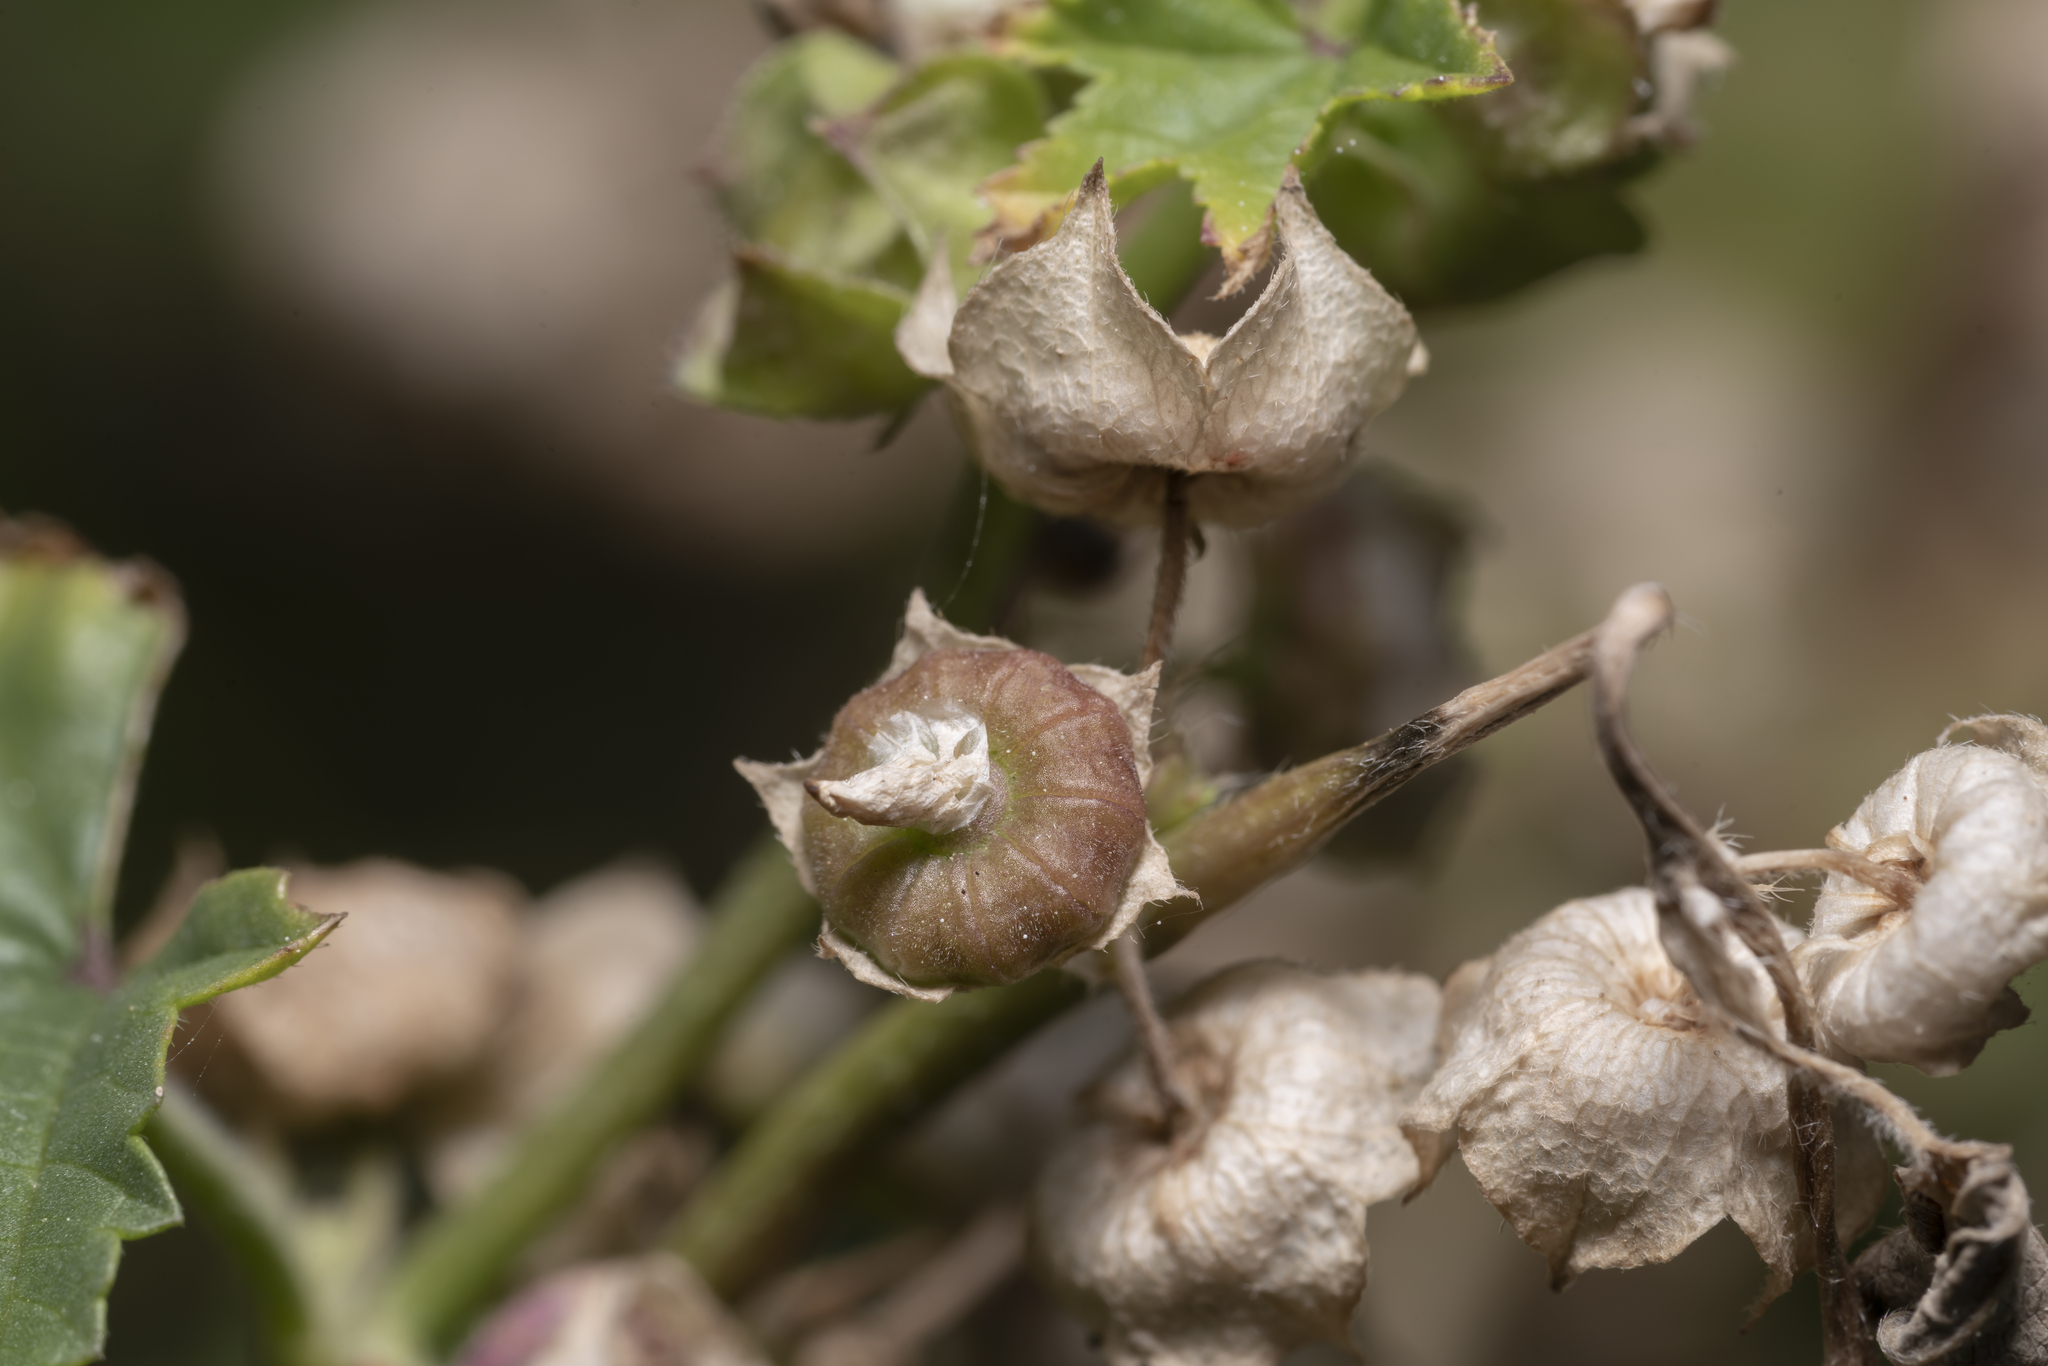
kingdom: Plantae
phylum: Tracheophyta
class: Magnoliopsida
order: Malvales
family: Malvaceae
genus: Malva
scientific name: Malva parviflora
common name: Least mallow
